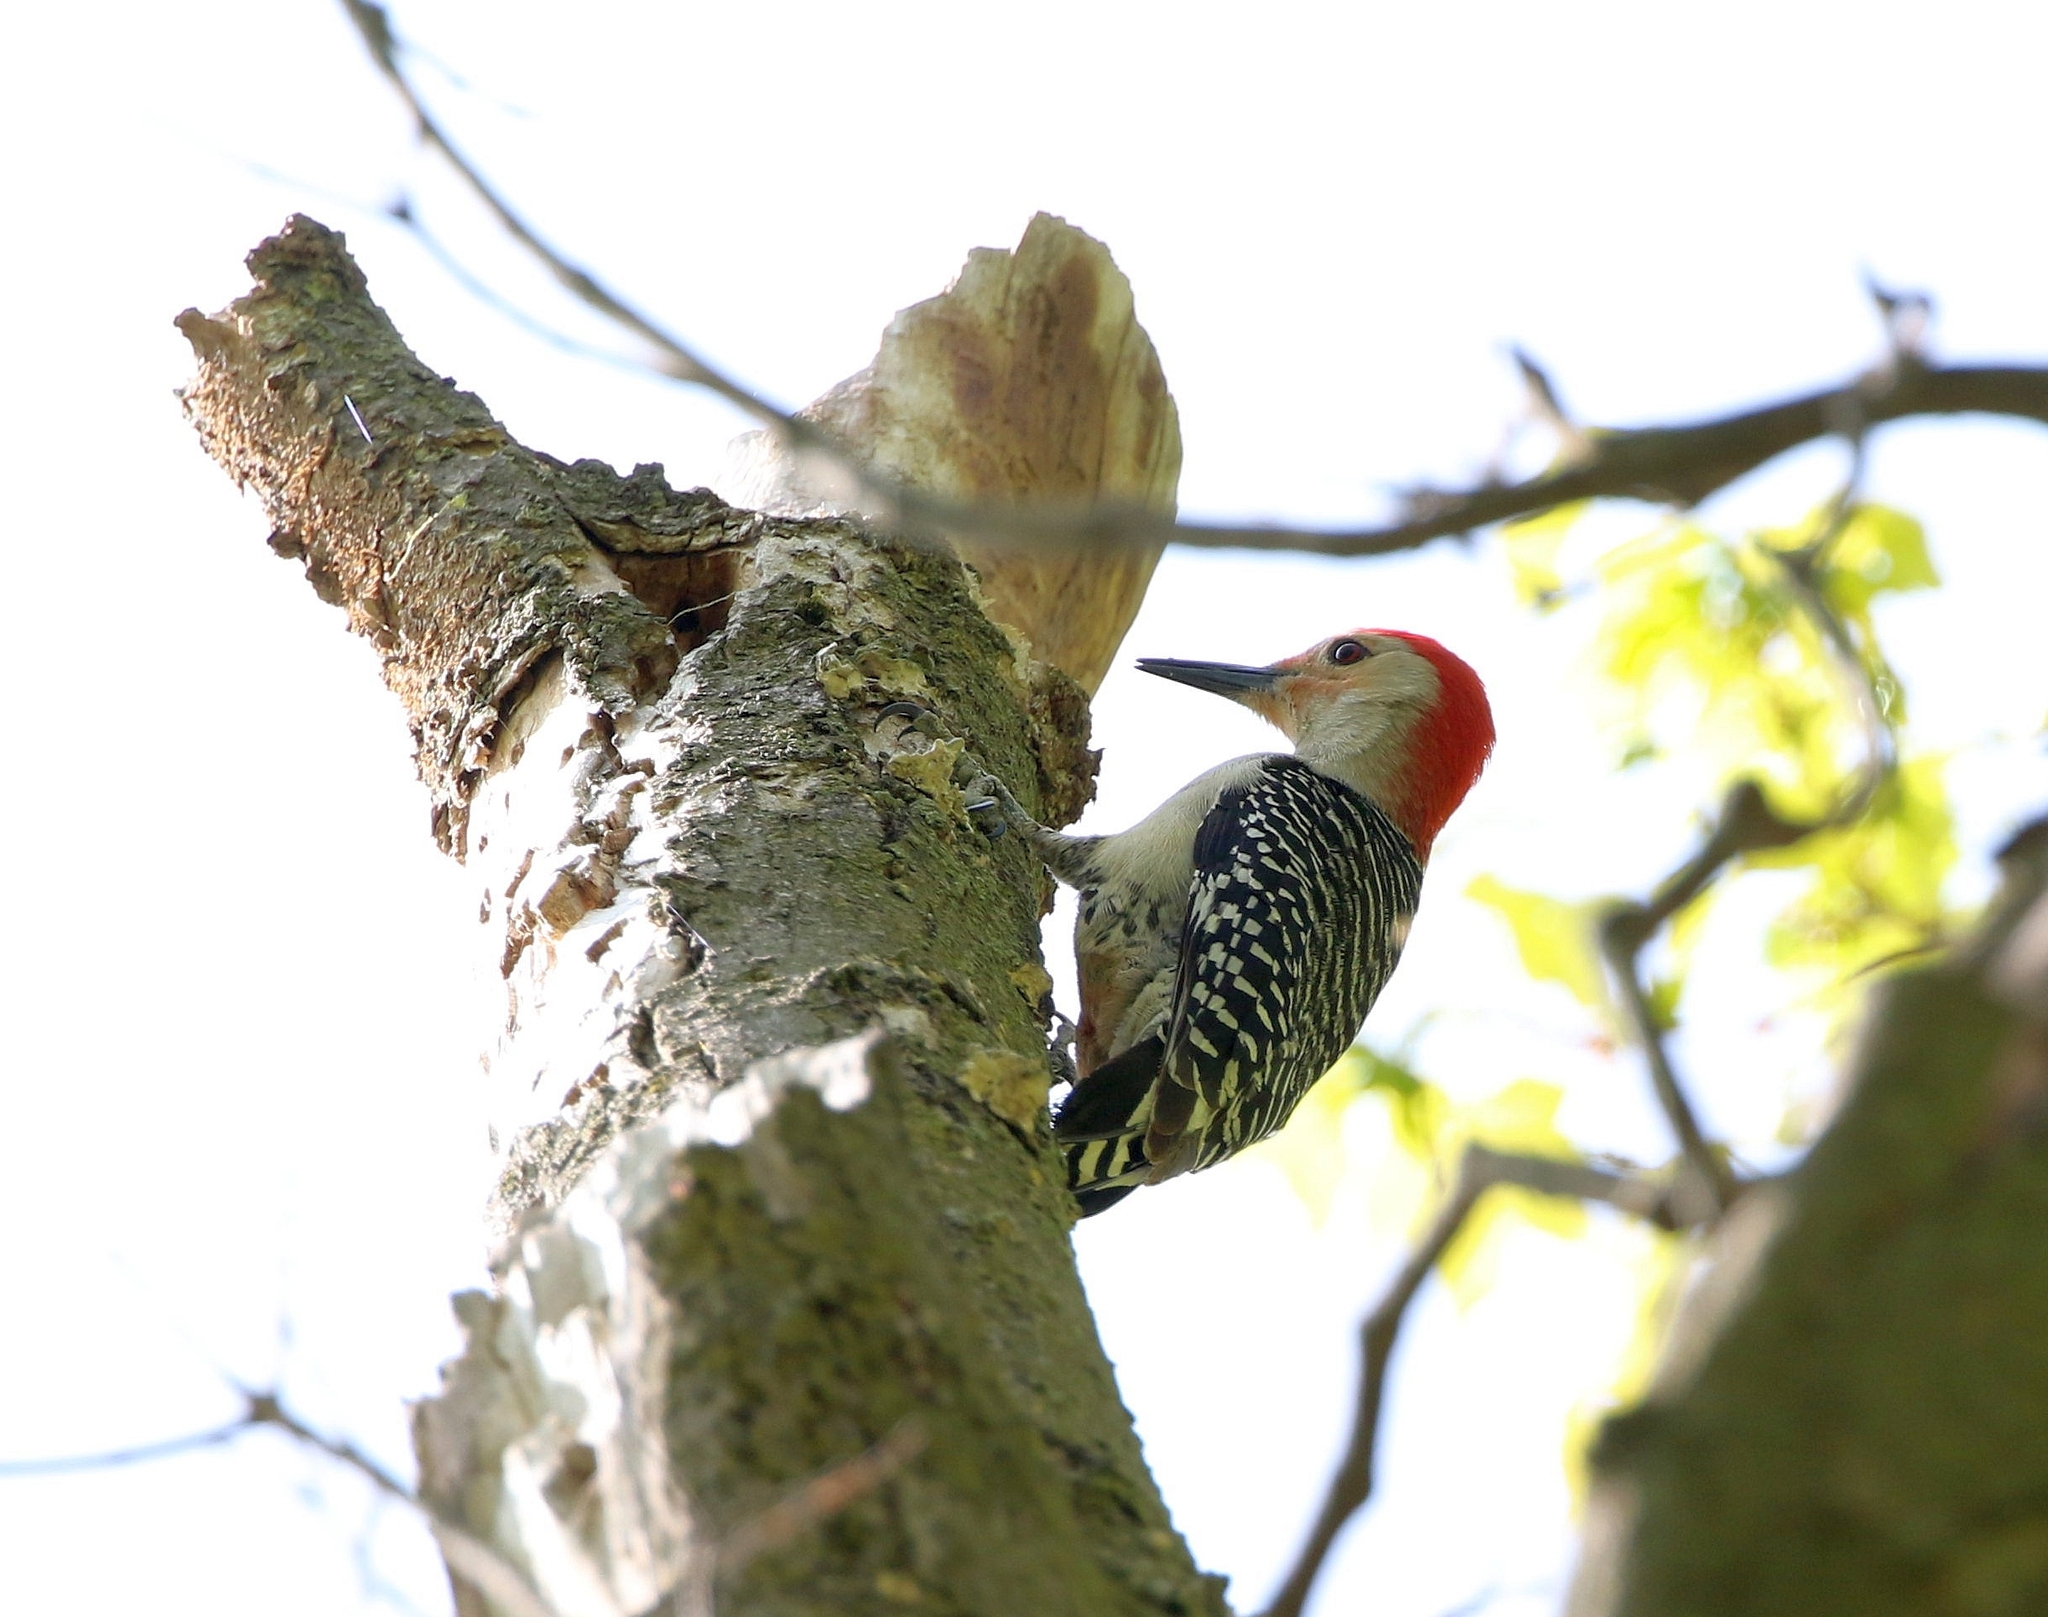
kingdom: Animalia
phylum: Chordata
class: Aves
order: Piciformes
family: Picidae
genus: Melanerpes
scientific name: Melanerpes carolinus
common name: Red-bellied woodpecker
